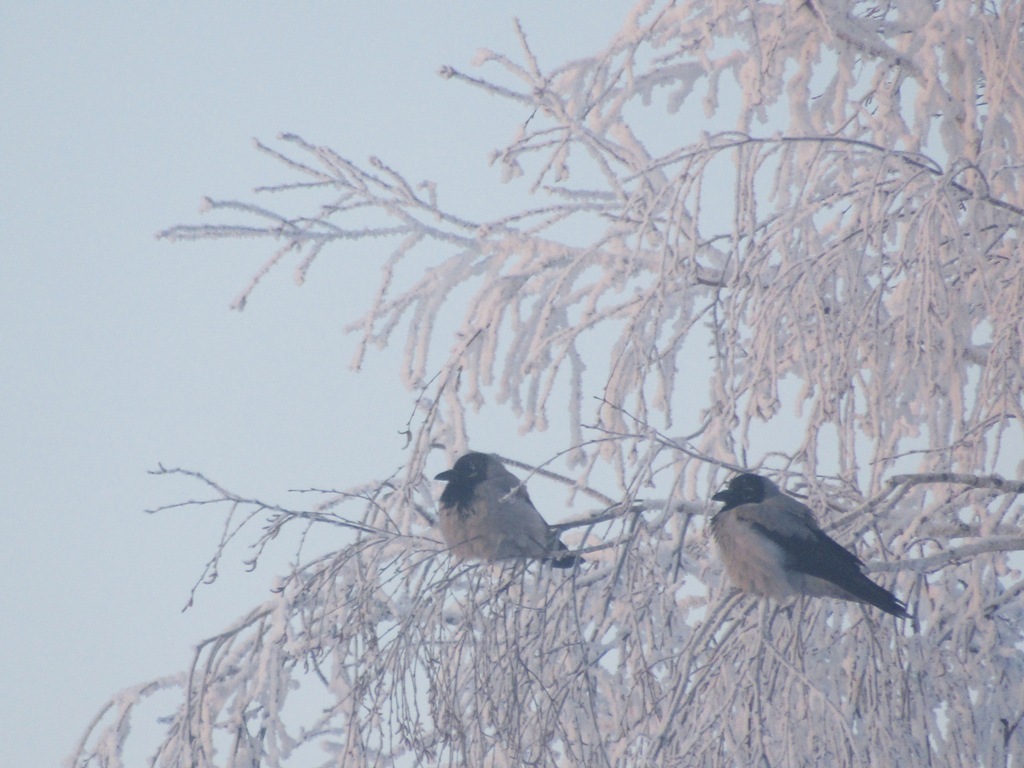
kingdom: Animalia
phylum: Chordata
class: Aves
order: Passeriformes
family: Corvidae
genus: Corvus
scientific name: Corvus cornix
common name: Hooded crow
